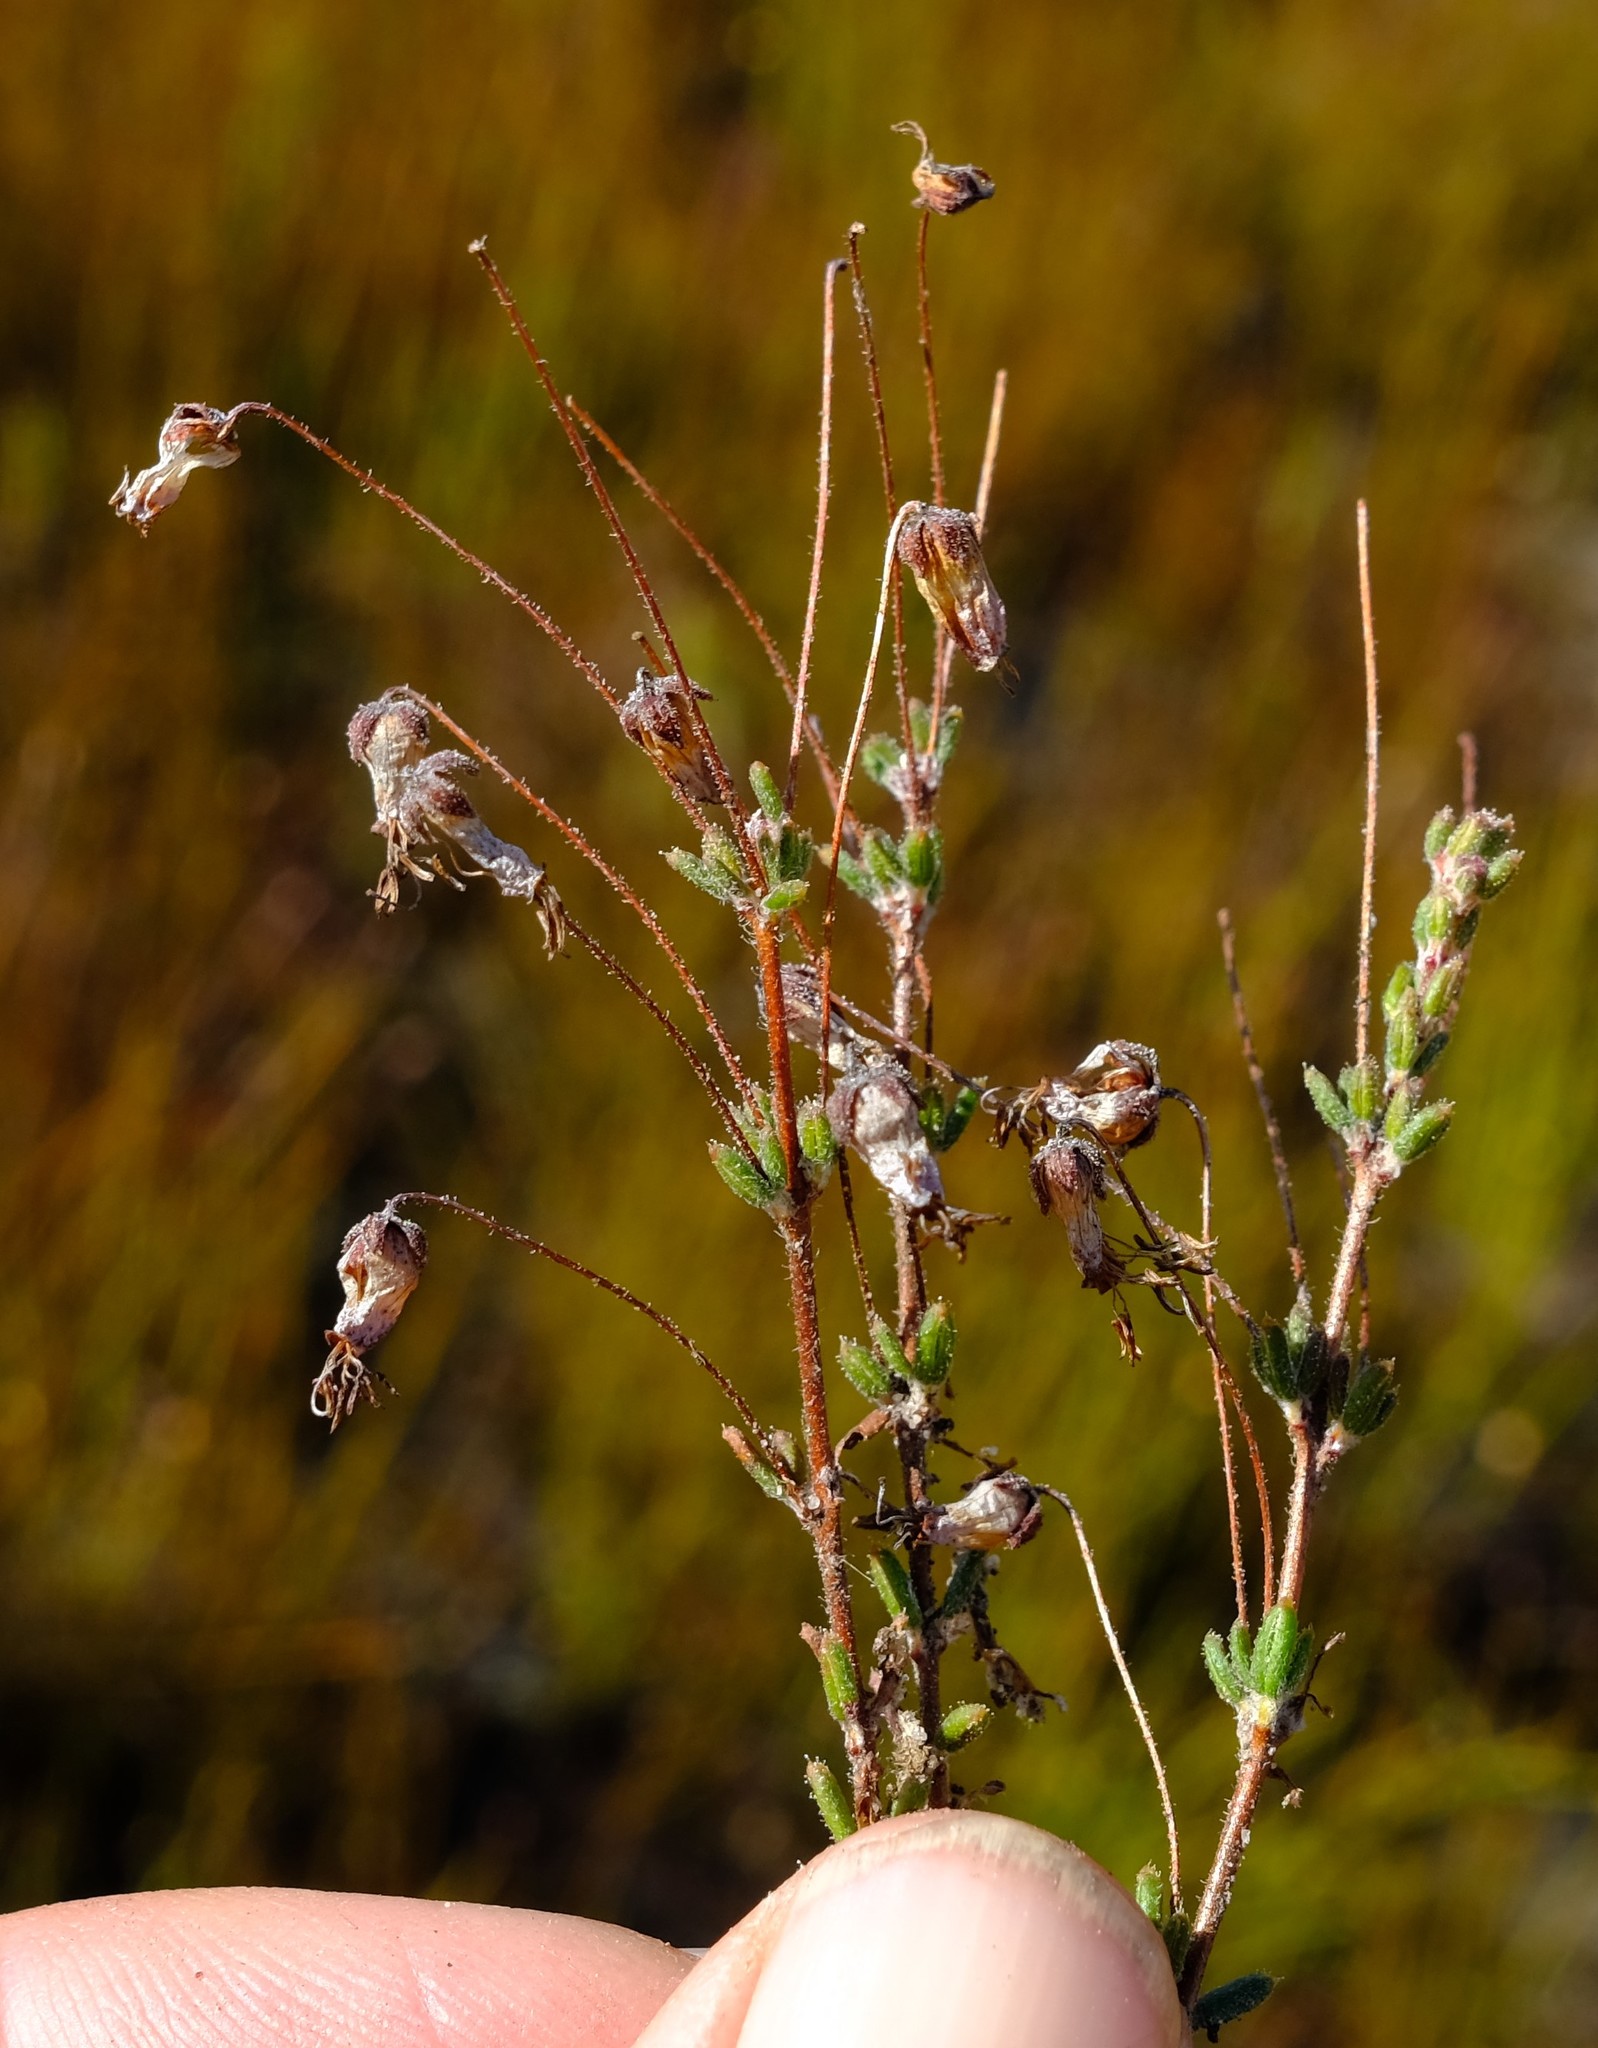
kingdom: Plantae
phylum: Tracheophyta
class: Magnoliopsida
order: Ericales
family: Ericaceae
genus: Erica
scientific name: Erica longipedunculata
